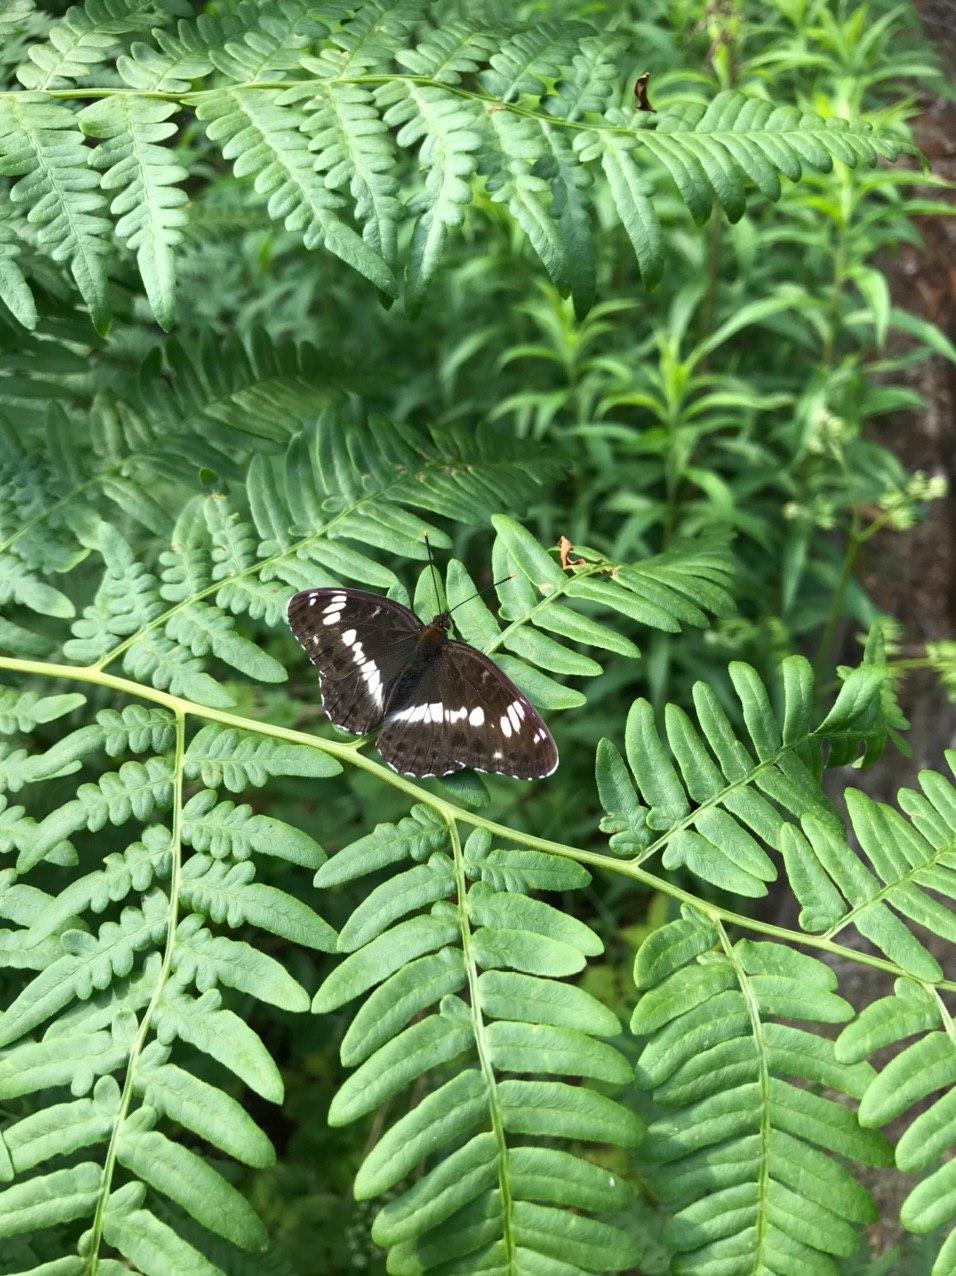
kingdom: Animalia
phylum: Arthropoda
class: Insecta
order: Lepidoptera
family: Nymphalidae
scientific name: Nymphalidae
